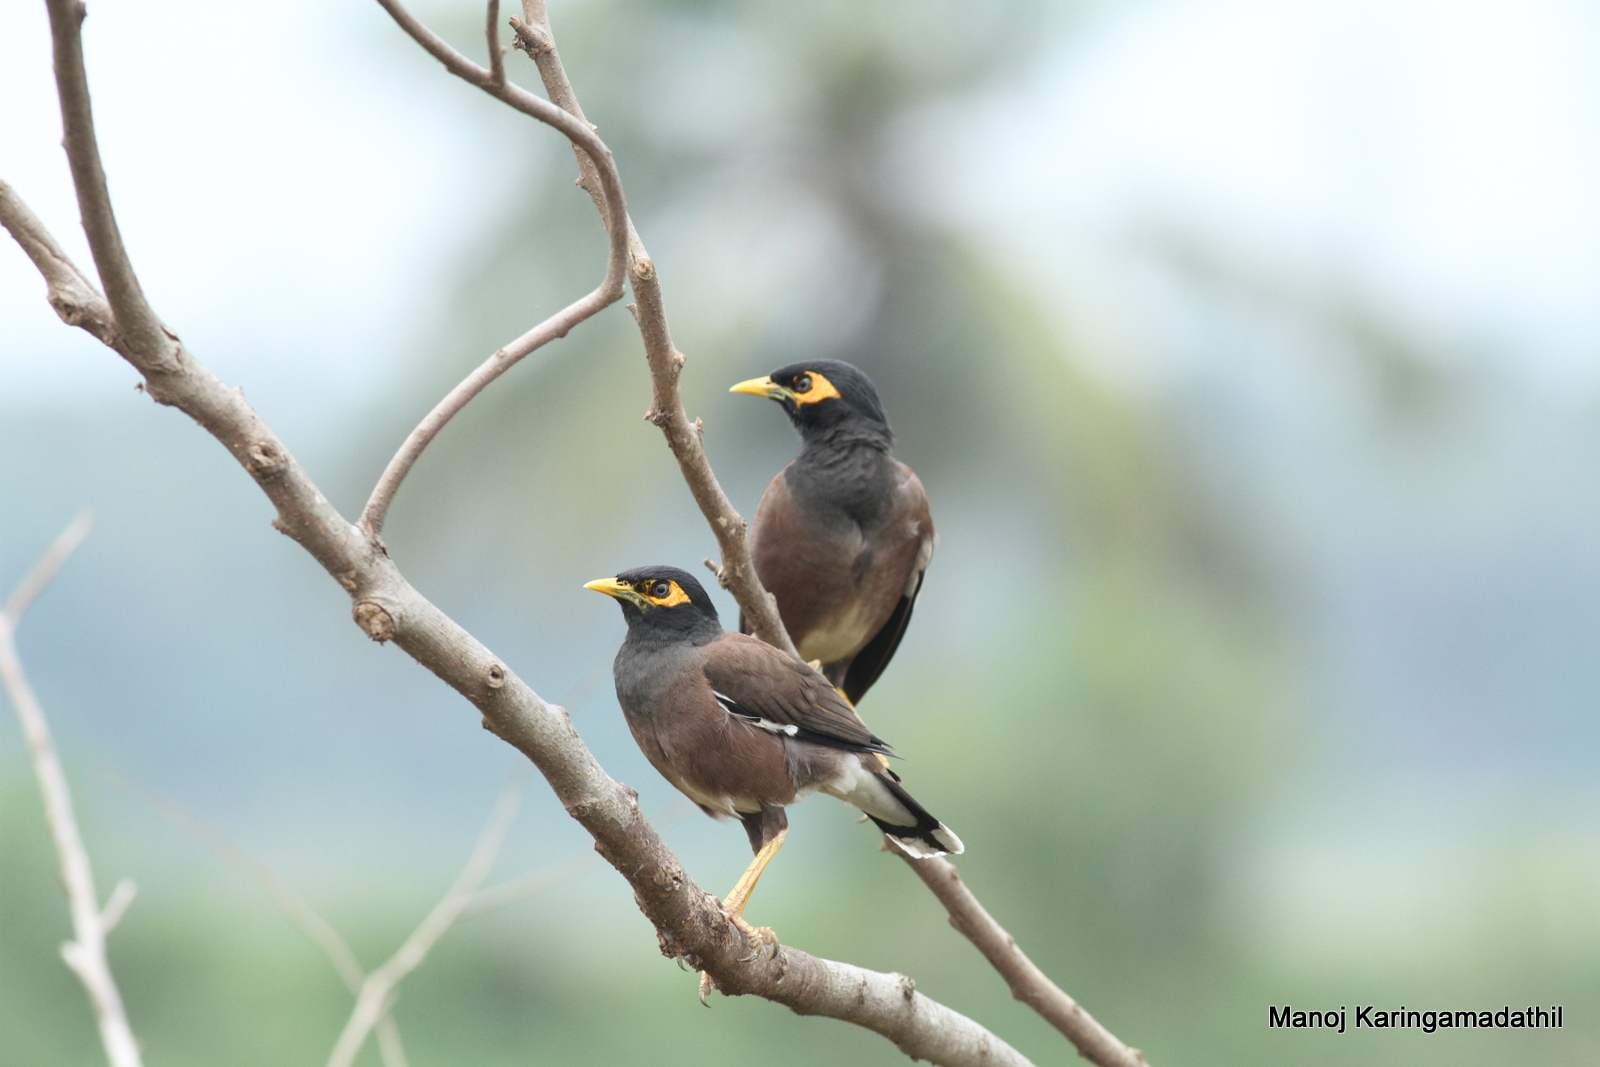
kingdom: Animalia
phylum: Chordata
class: Aves
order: Passeriformes
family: Sturnidae
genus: Acridotheres
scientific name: Acridotheres tristis
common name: Common myna
